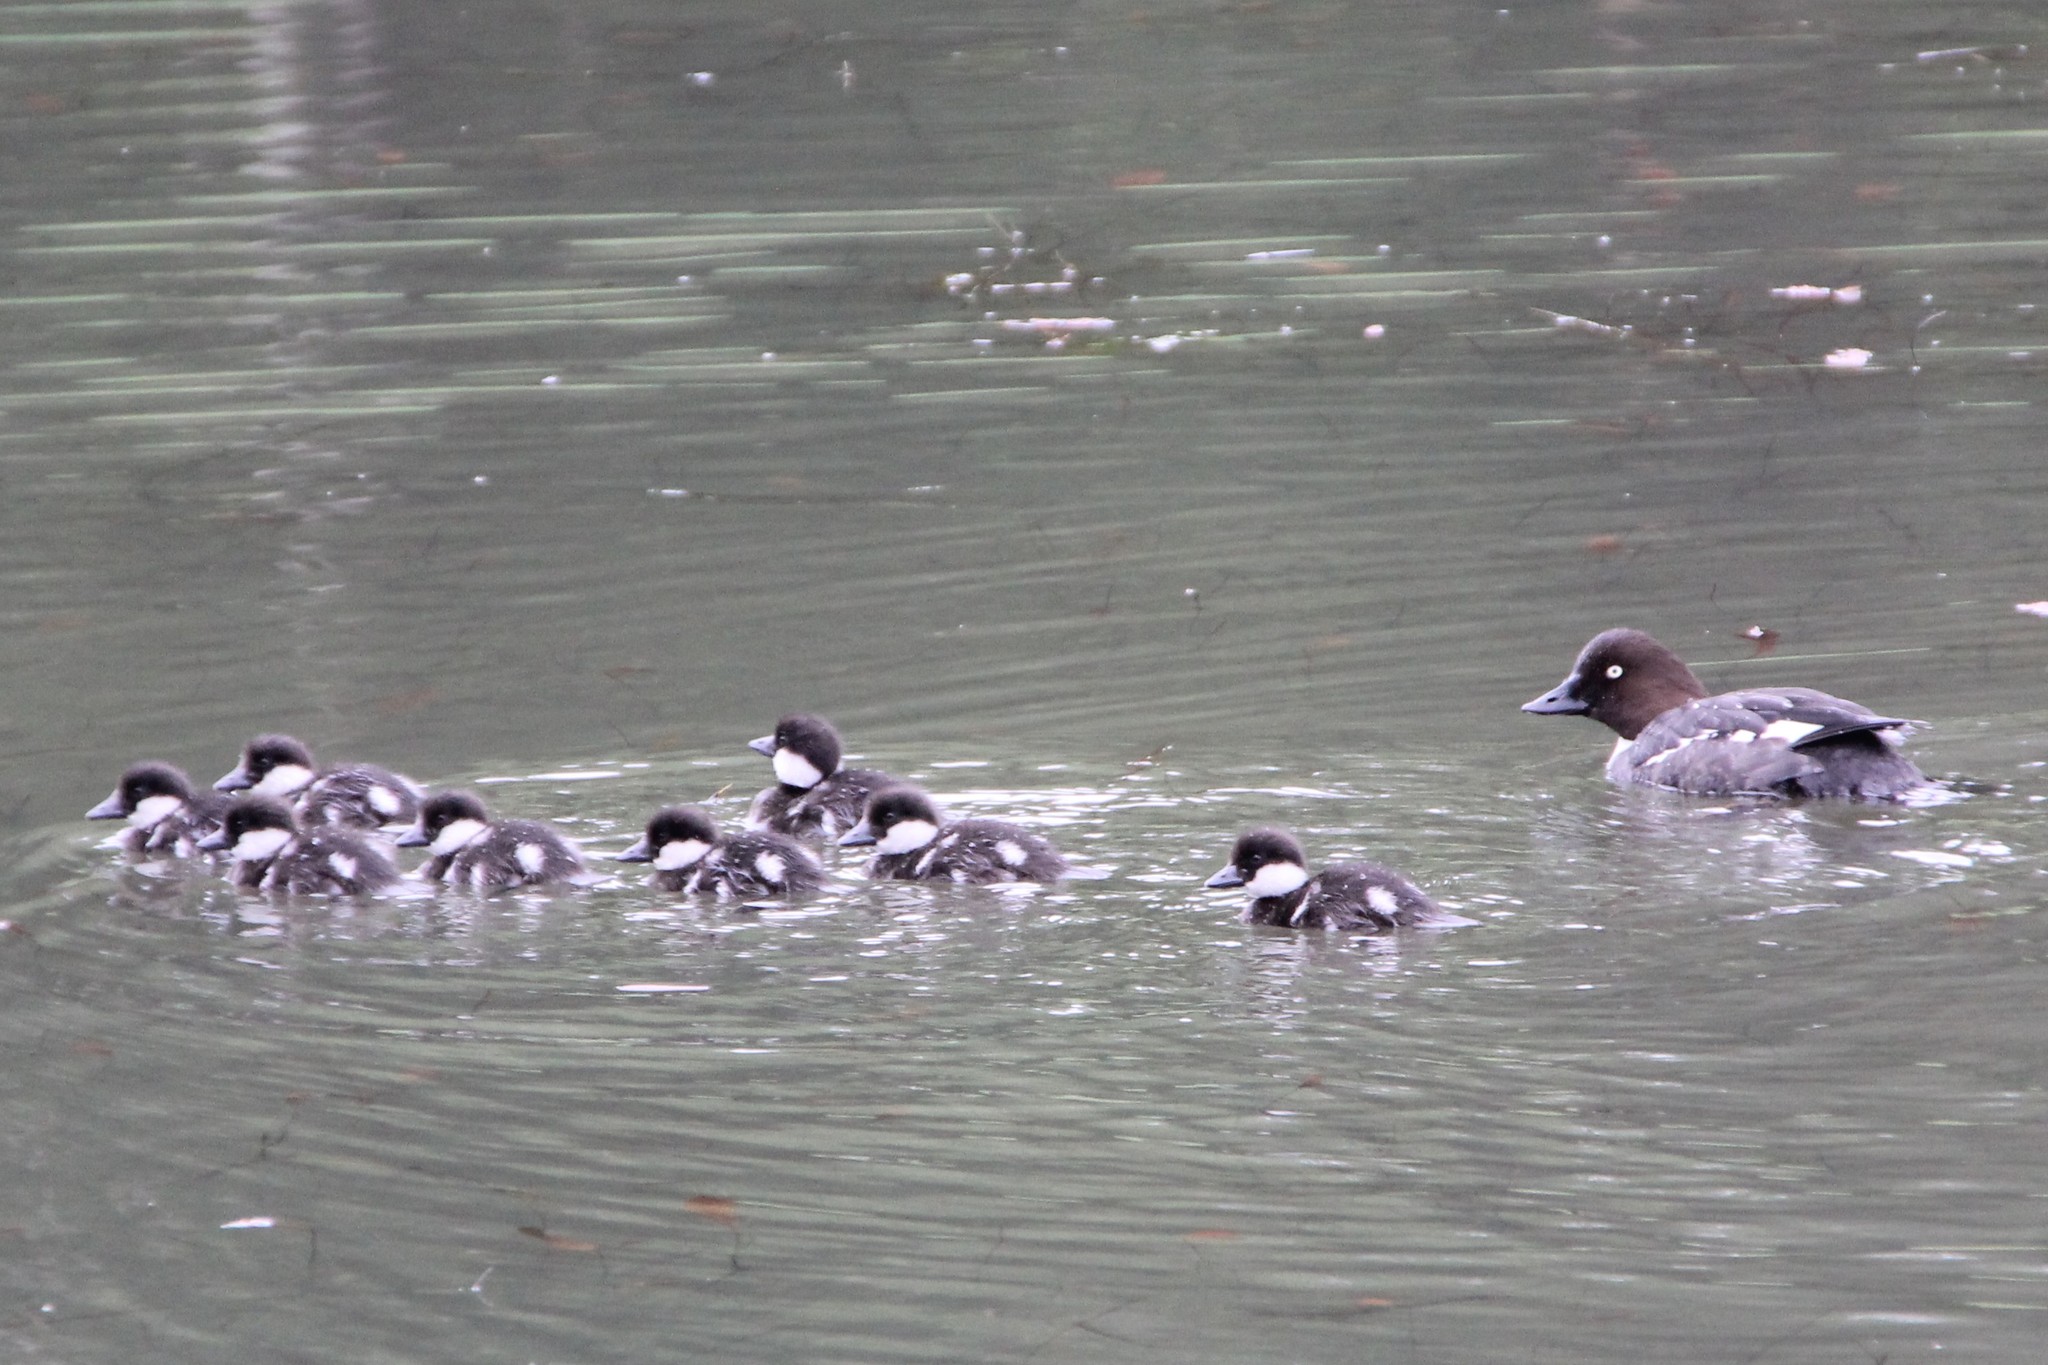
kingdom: Animalia
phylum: Chordata
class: Aves
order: Anseriformes
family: Anatidae
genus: Bucephala
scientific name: Bucephala clangula
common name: Common goldeneye
